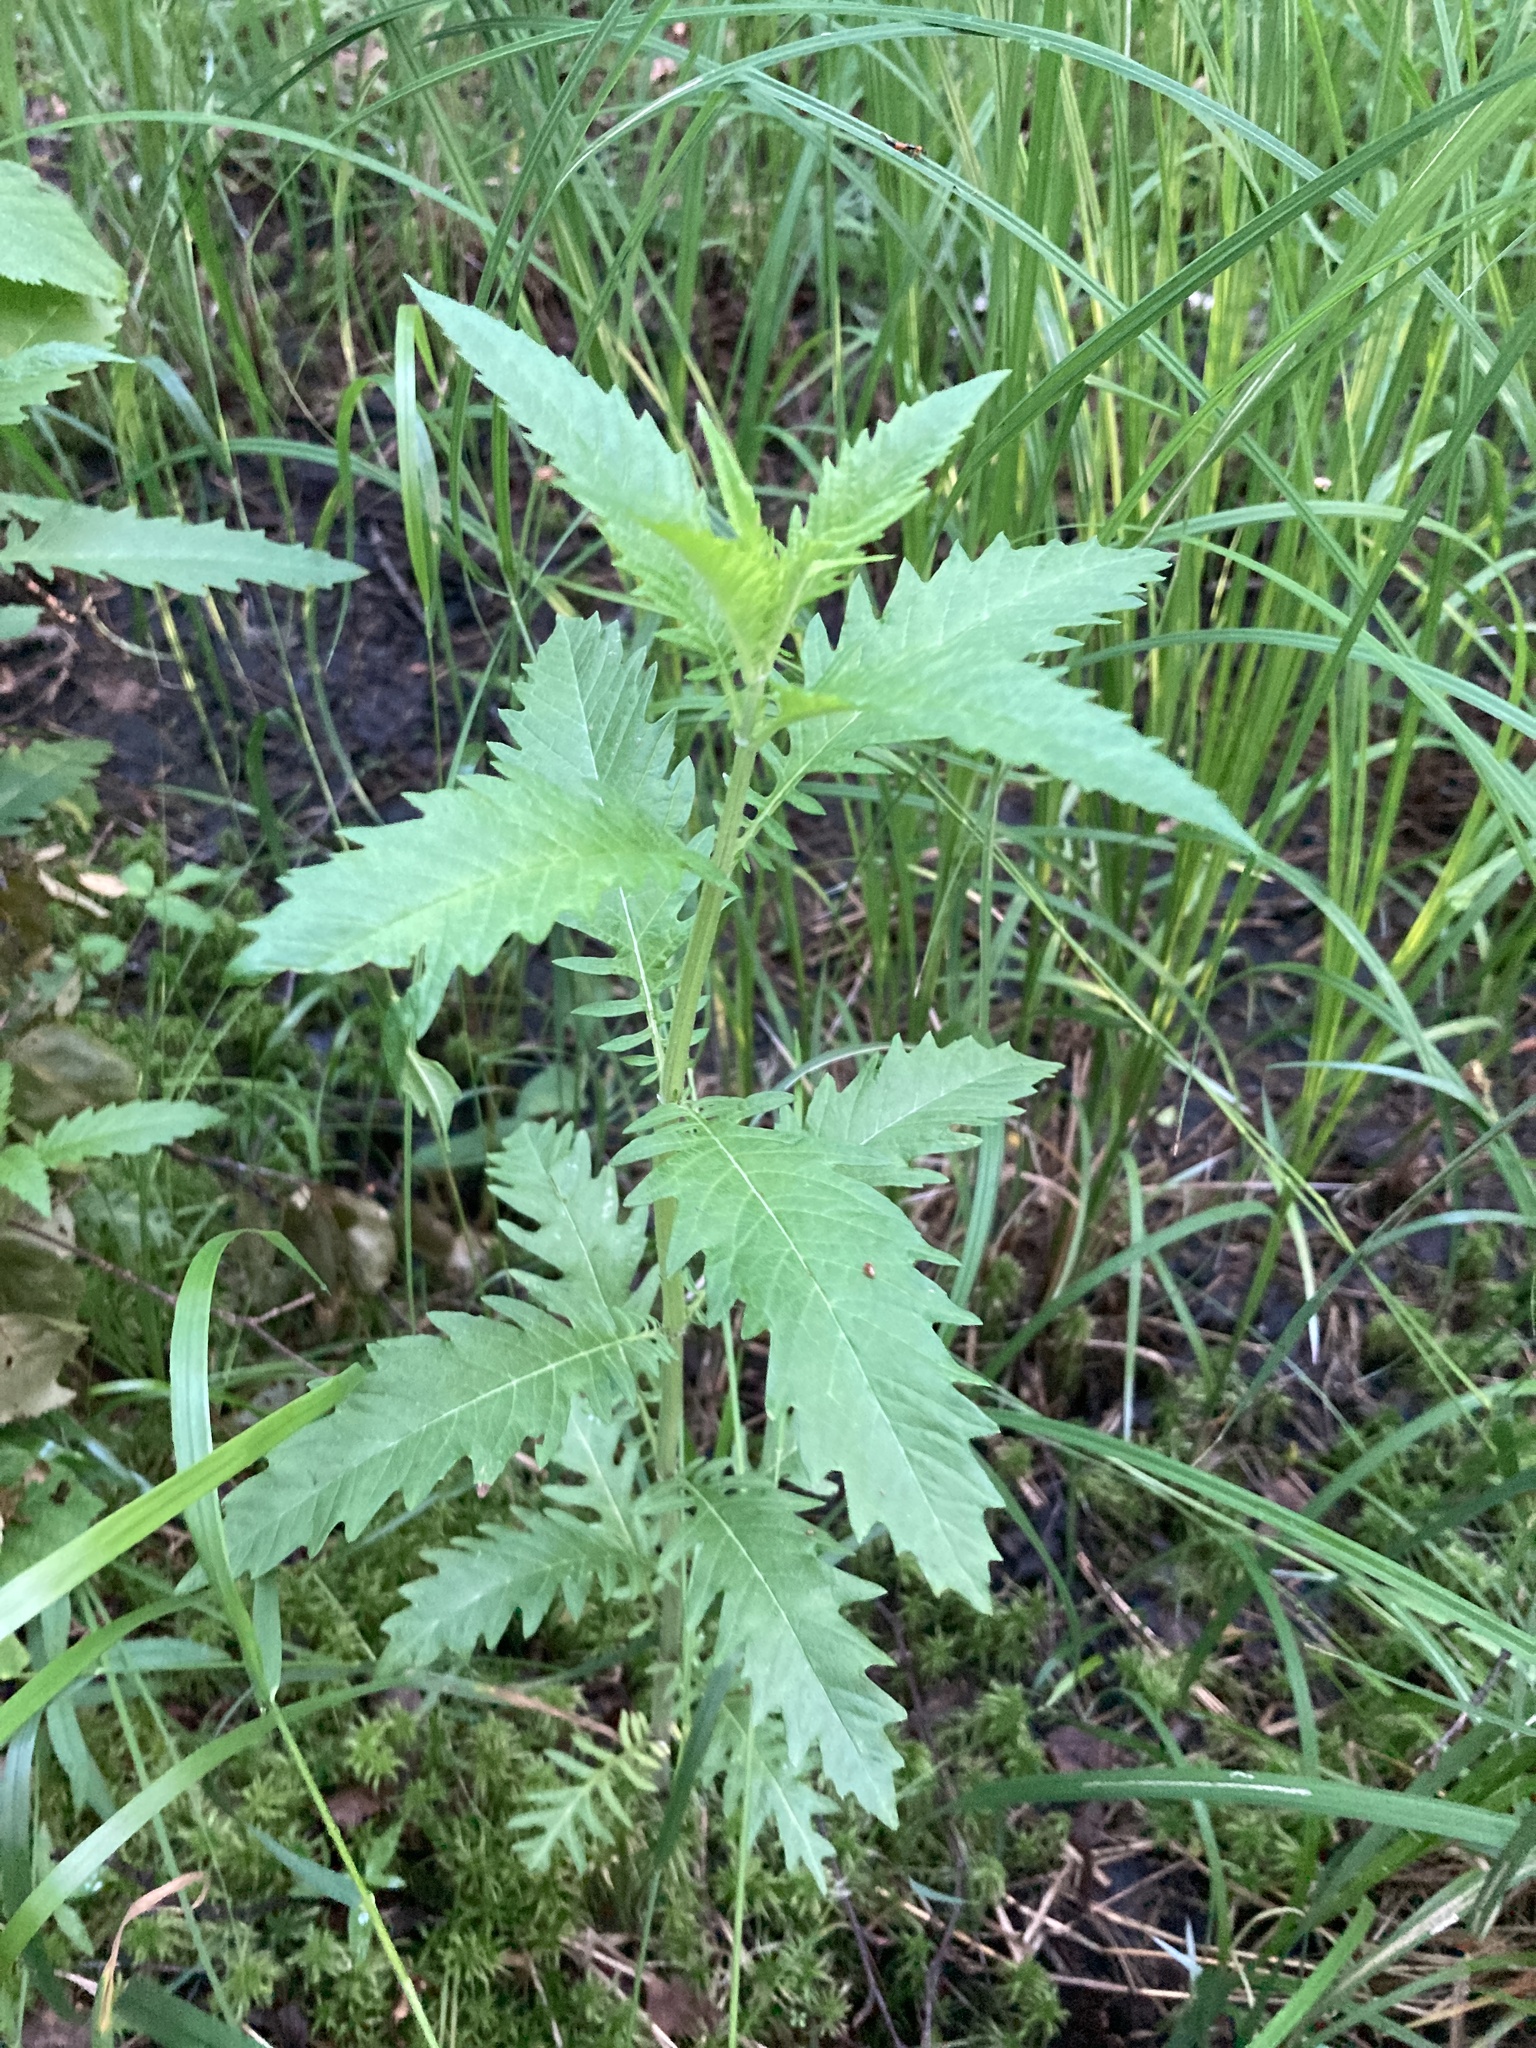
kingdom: Plantae
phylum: Tracheophyta
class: Magnoliopsida
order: Lamiales
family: Lamiaceae
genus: Lycopus
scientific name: Lycopus europaeus
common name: European bugleweed
